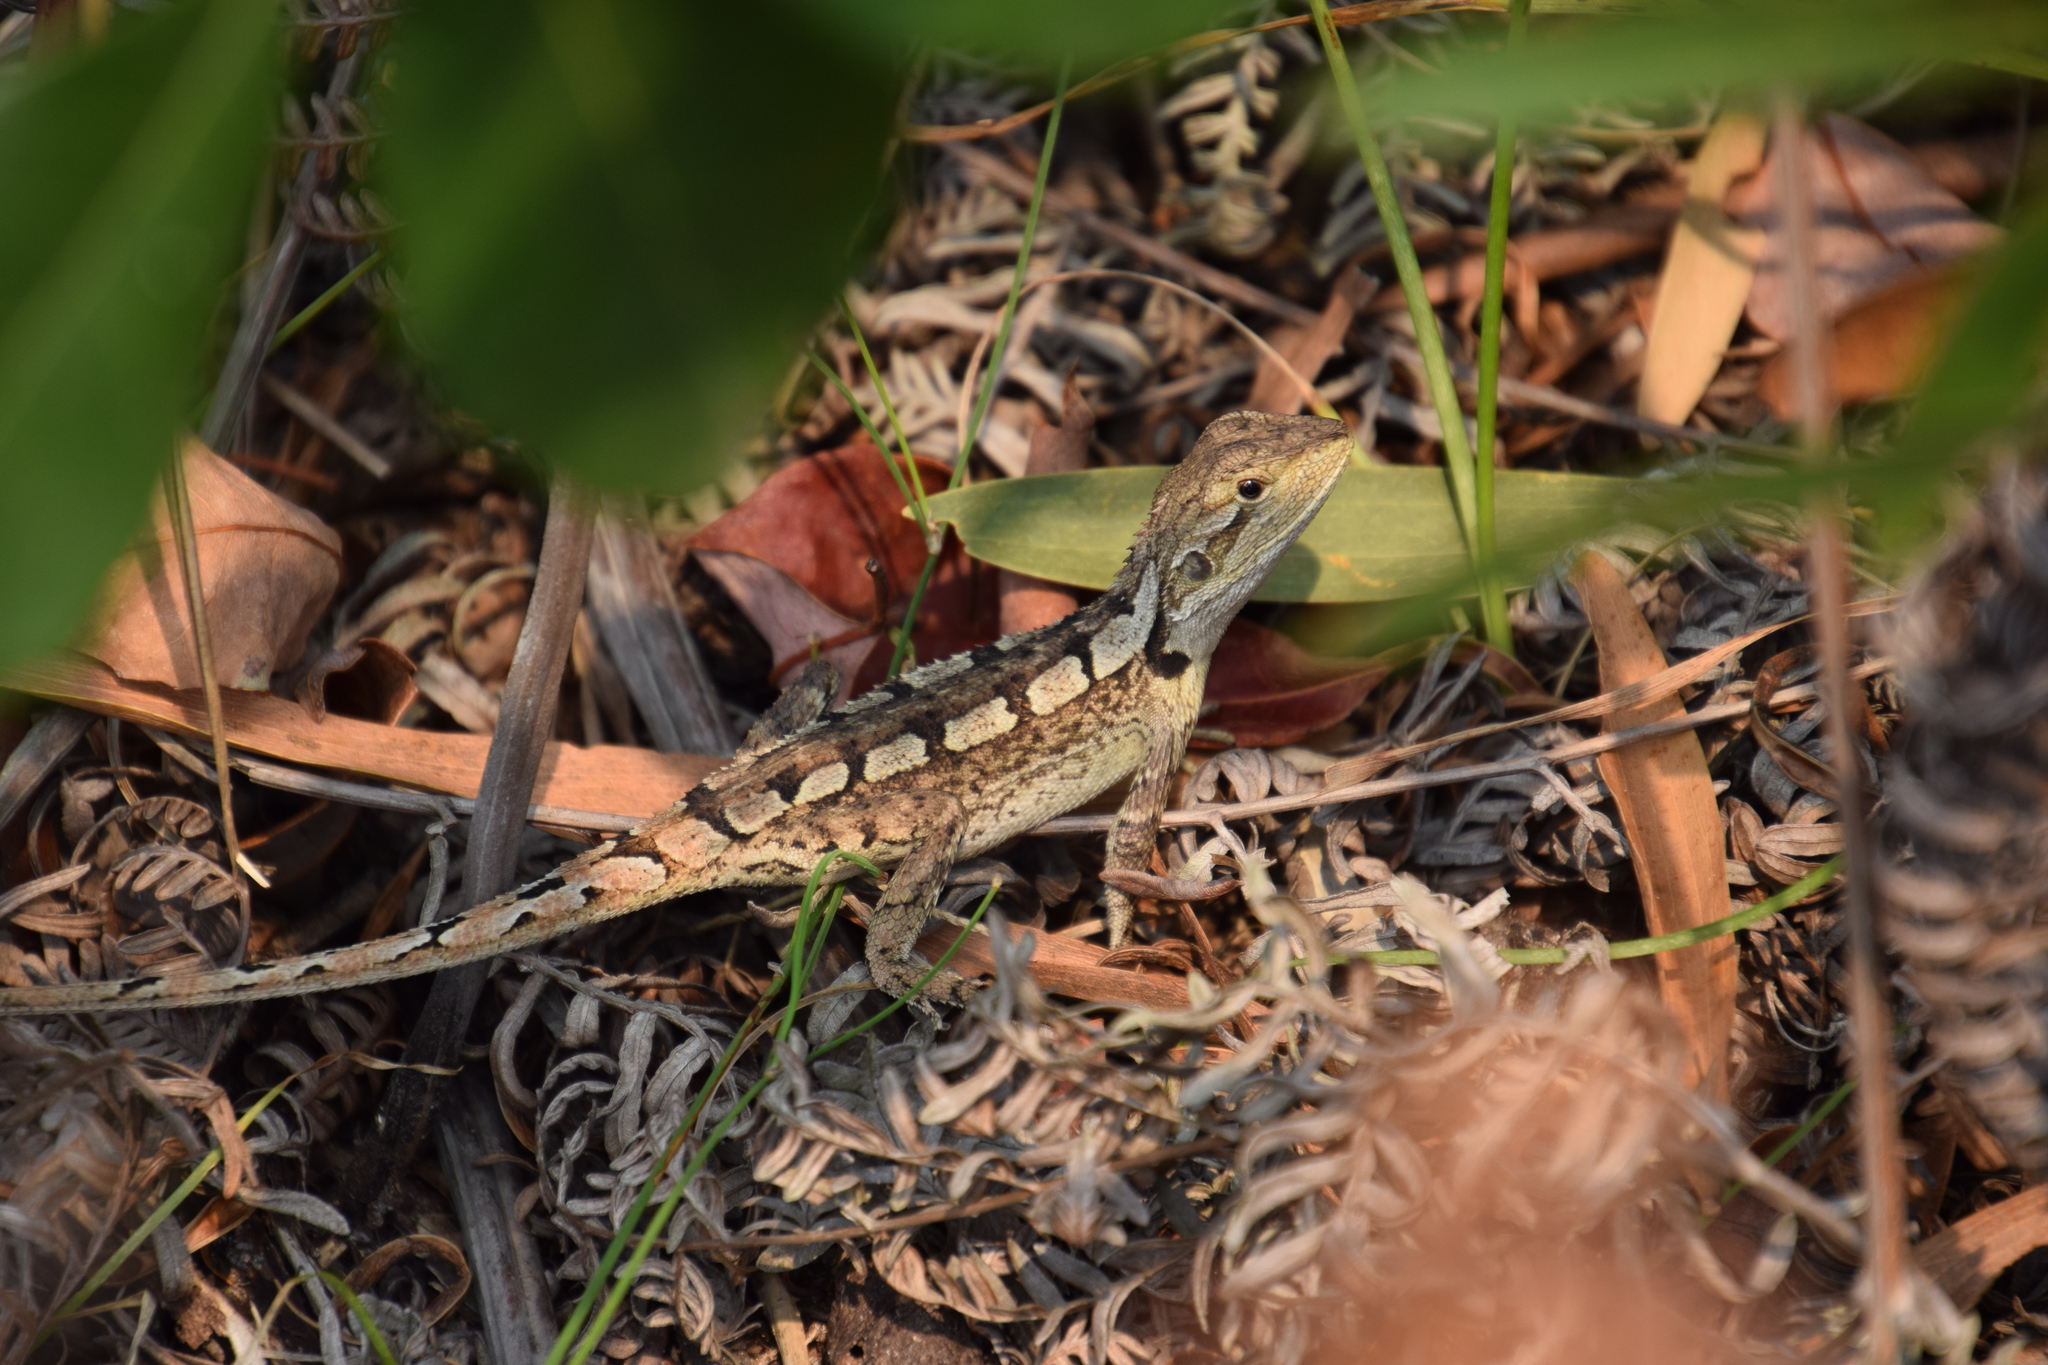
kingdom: Animalia
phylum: Chordata
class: Squamata
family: Agamidae
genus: Amphibolurus
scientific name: Amphibolurus muricatus
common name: Jacky lizard
